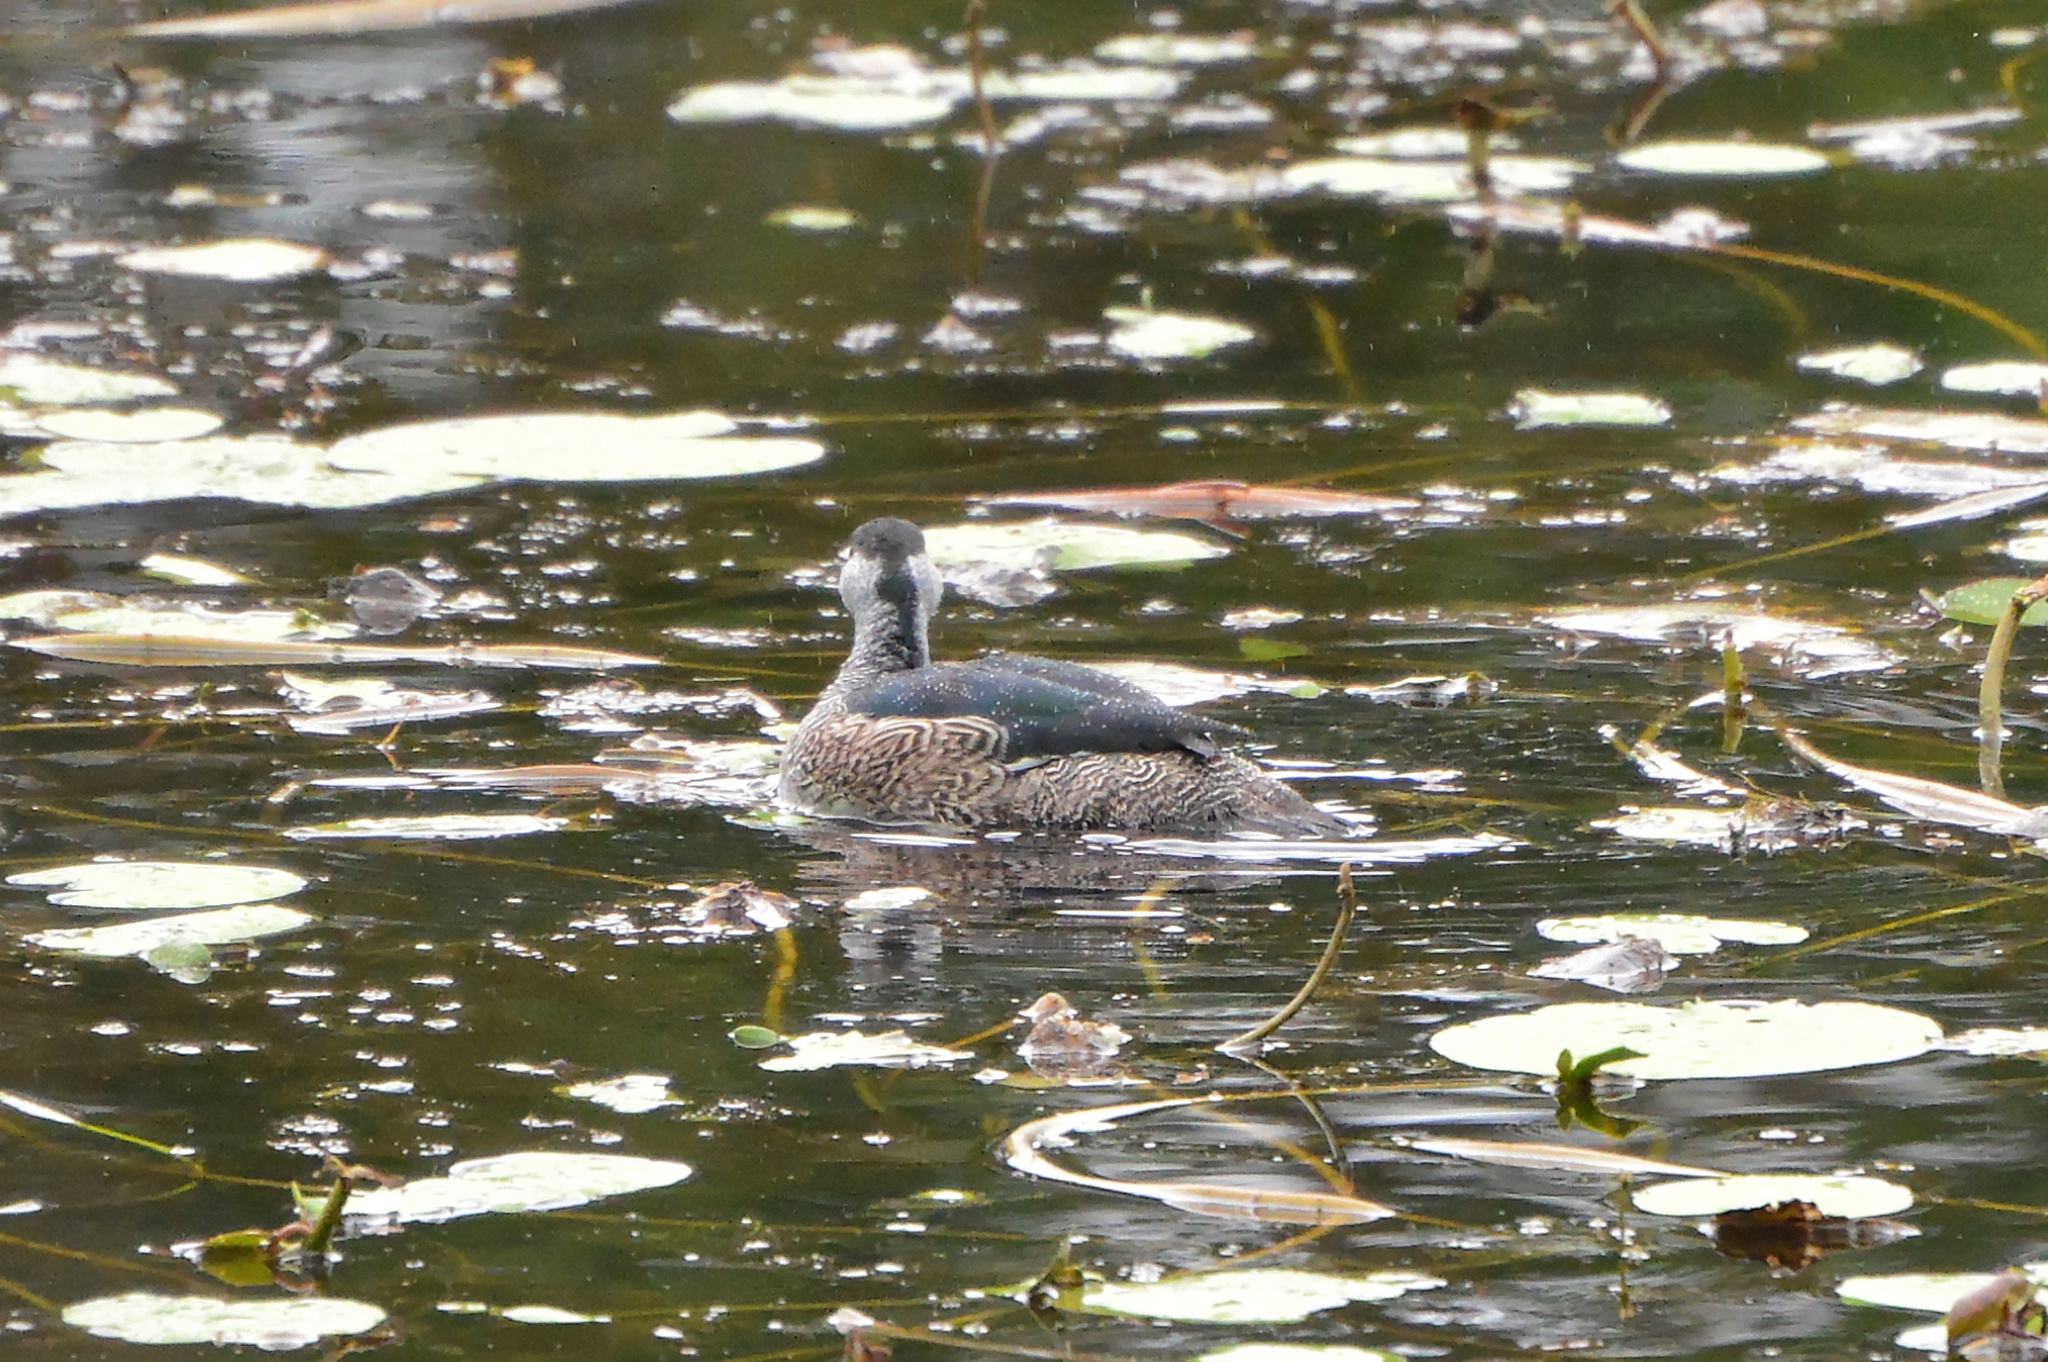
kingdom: Animalia
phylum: Chordata
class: Aves
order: Anseriformes
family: Anatidae
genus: Nettapus
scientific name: Nettapus pulchellus
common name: Green pygmy-goose
